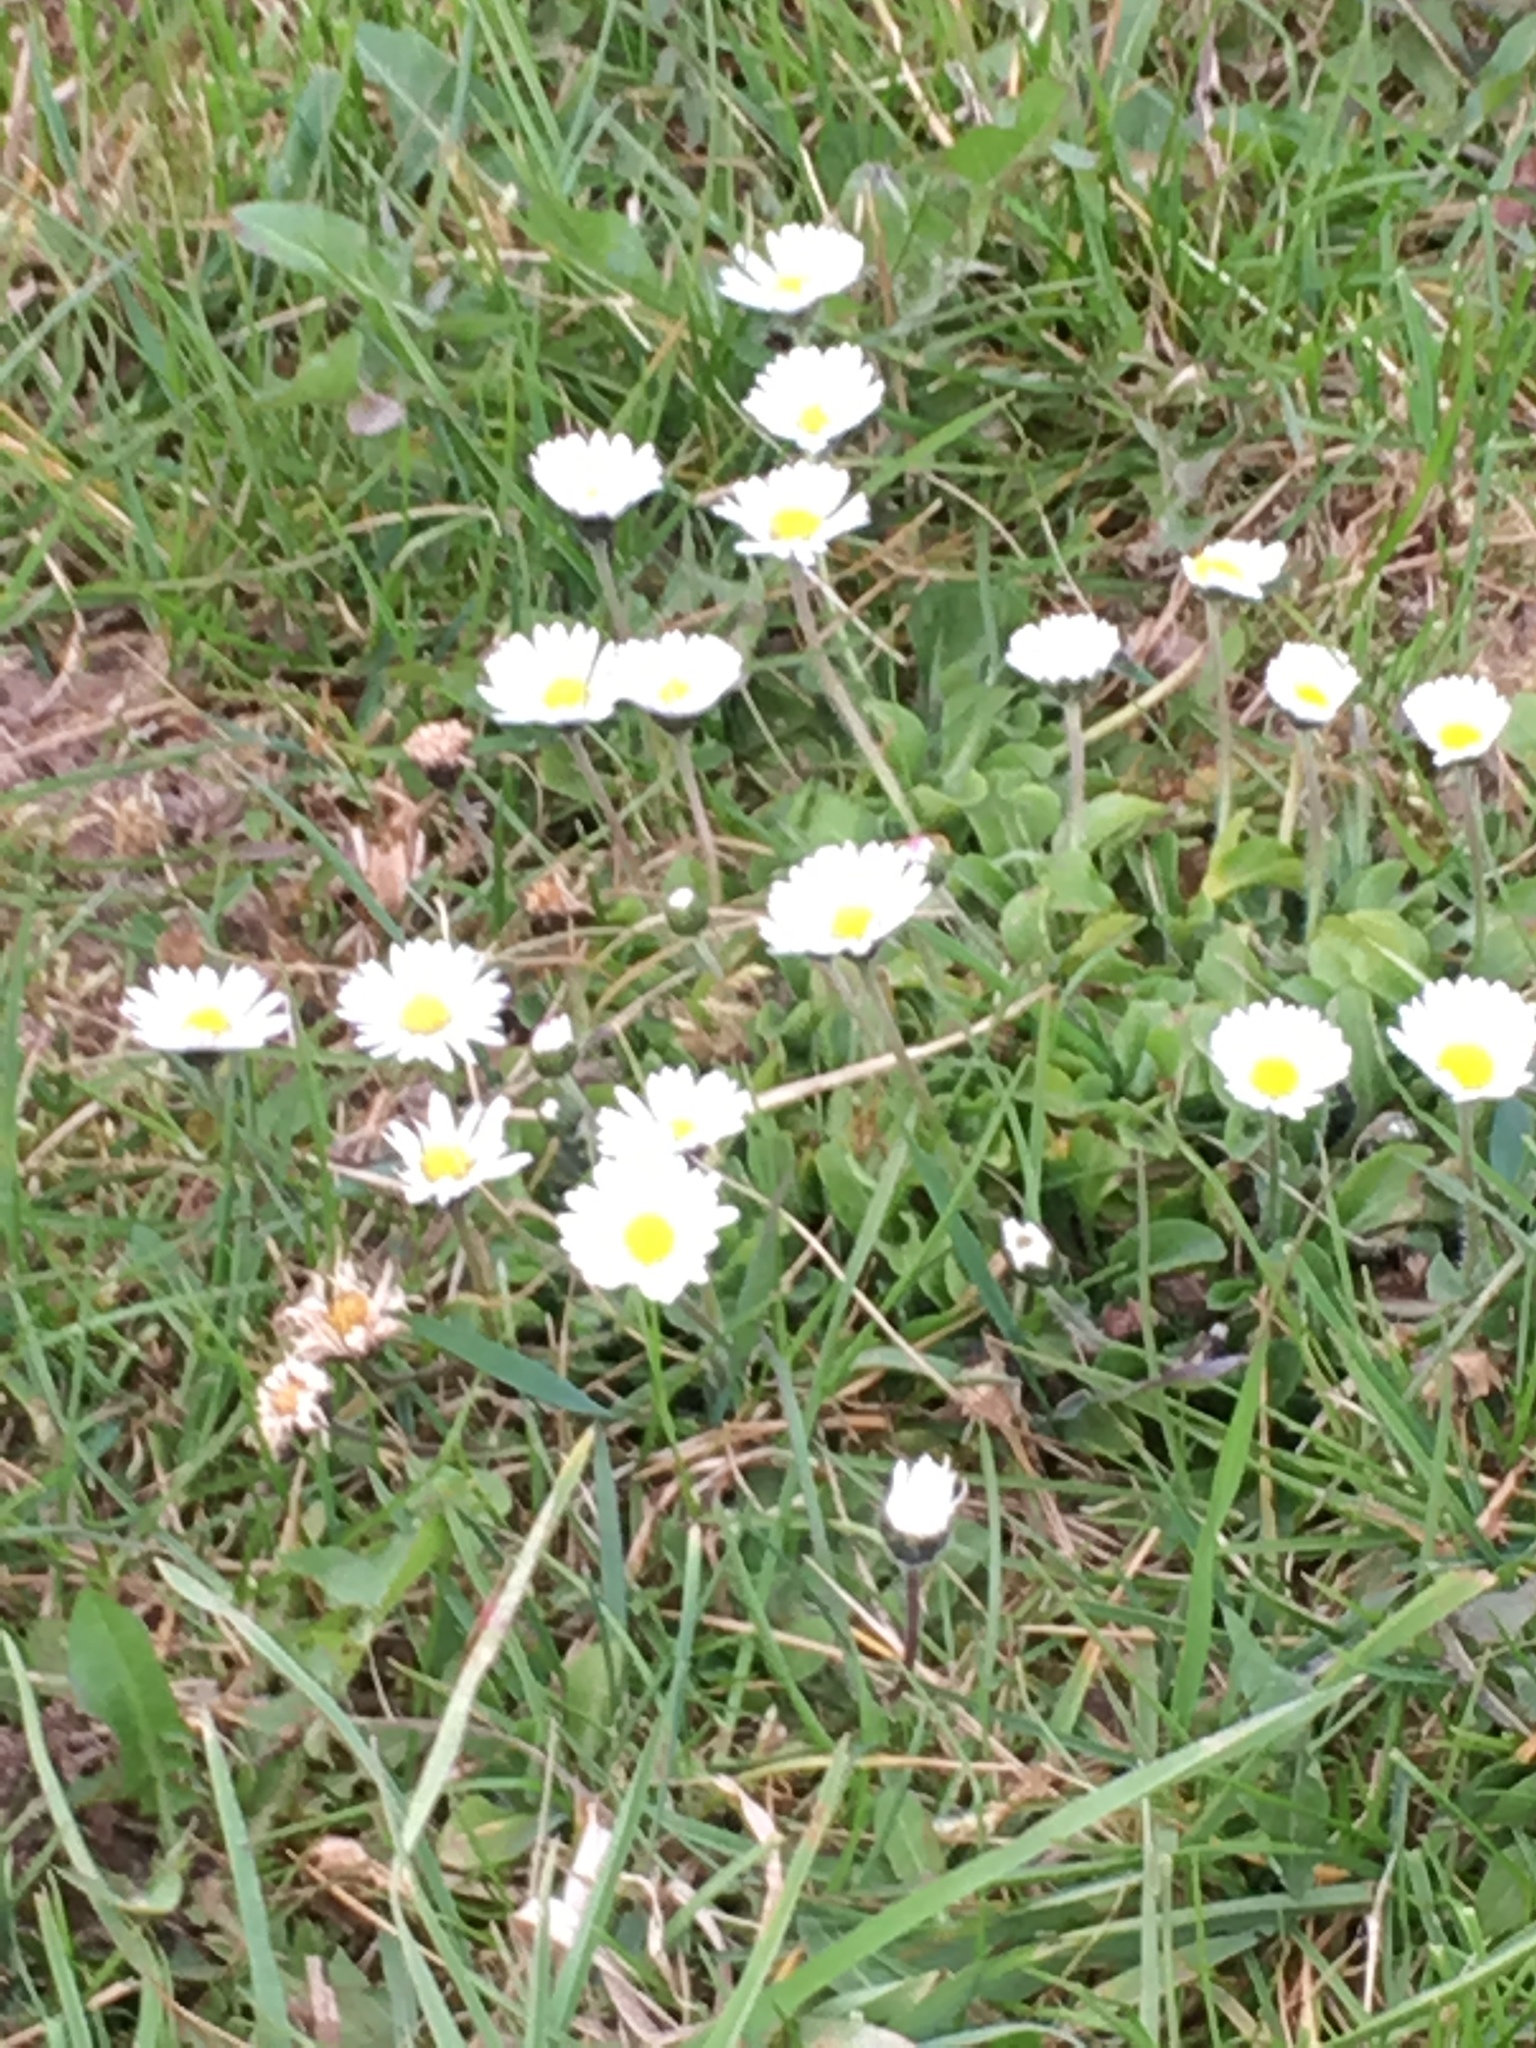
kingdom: Plantae
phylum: Tracheophyta
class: Magnoliopsida
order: Asterales
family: Asteraceae
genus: Bellis
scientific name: Bellis perennis
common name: Lawndaisy
